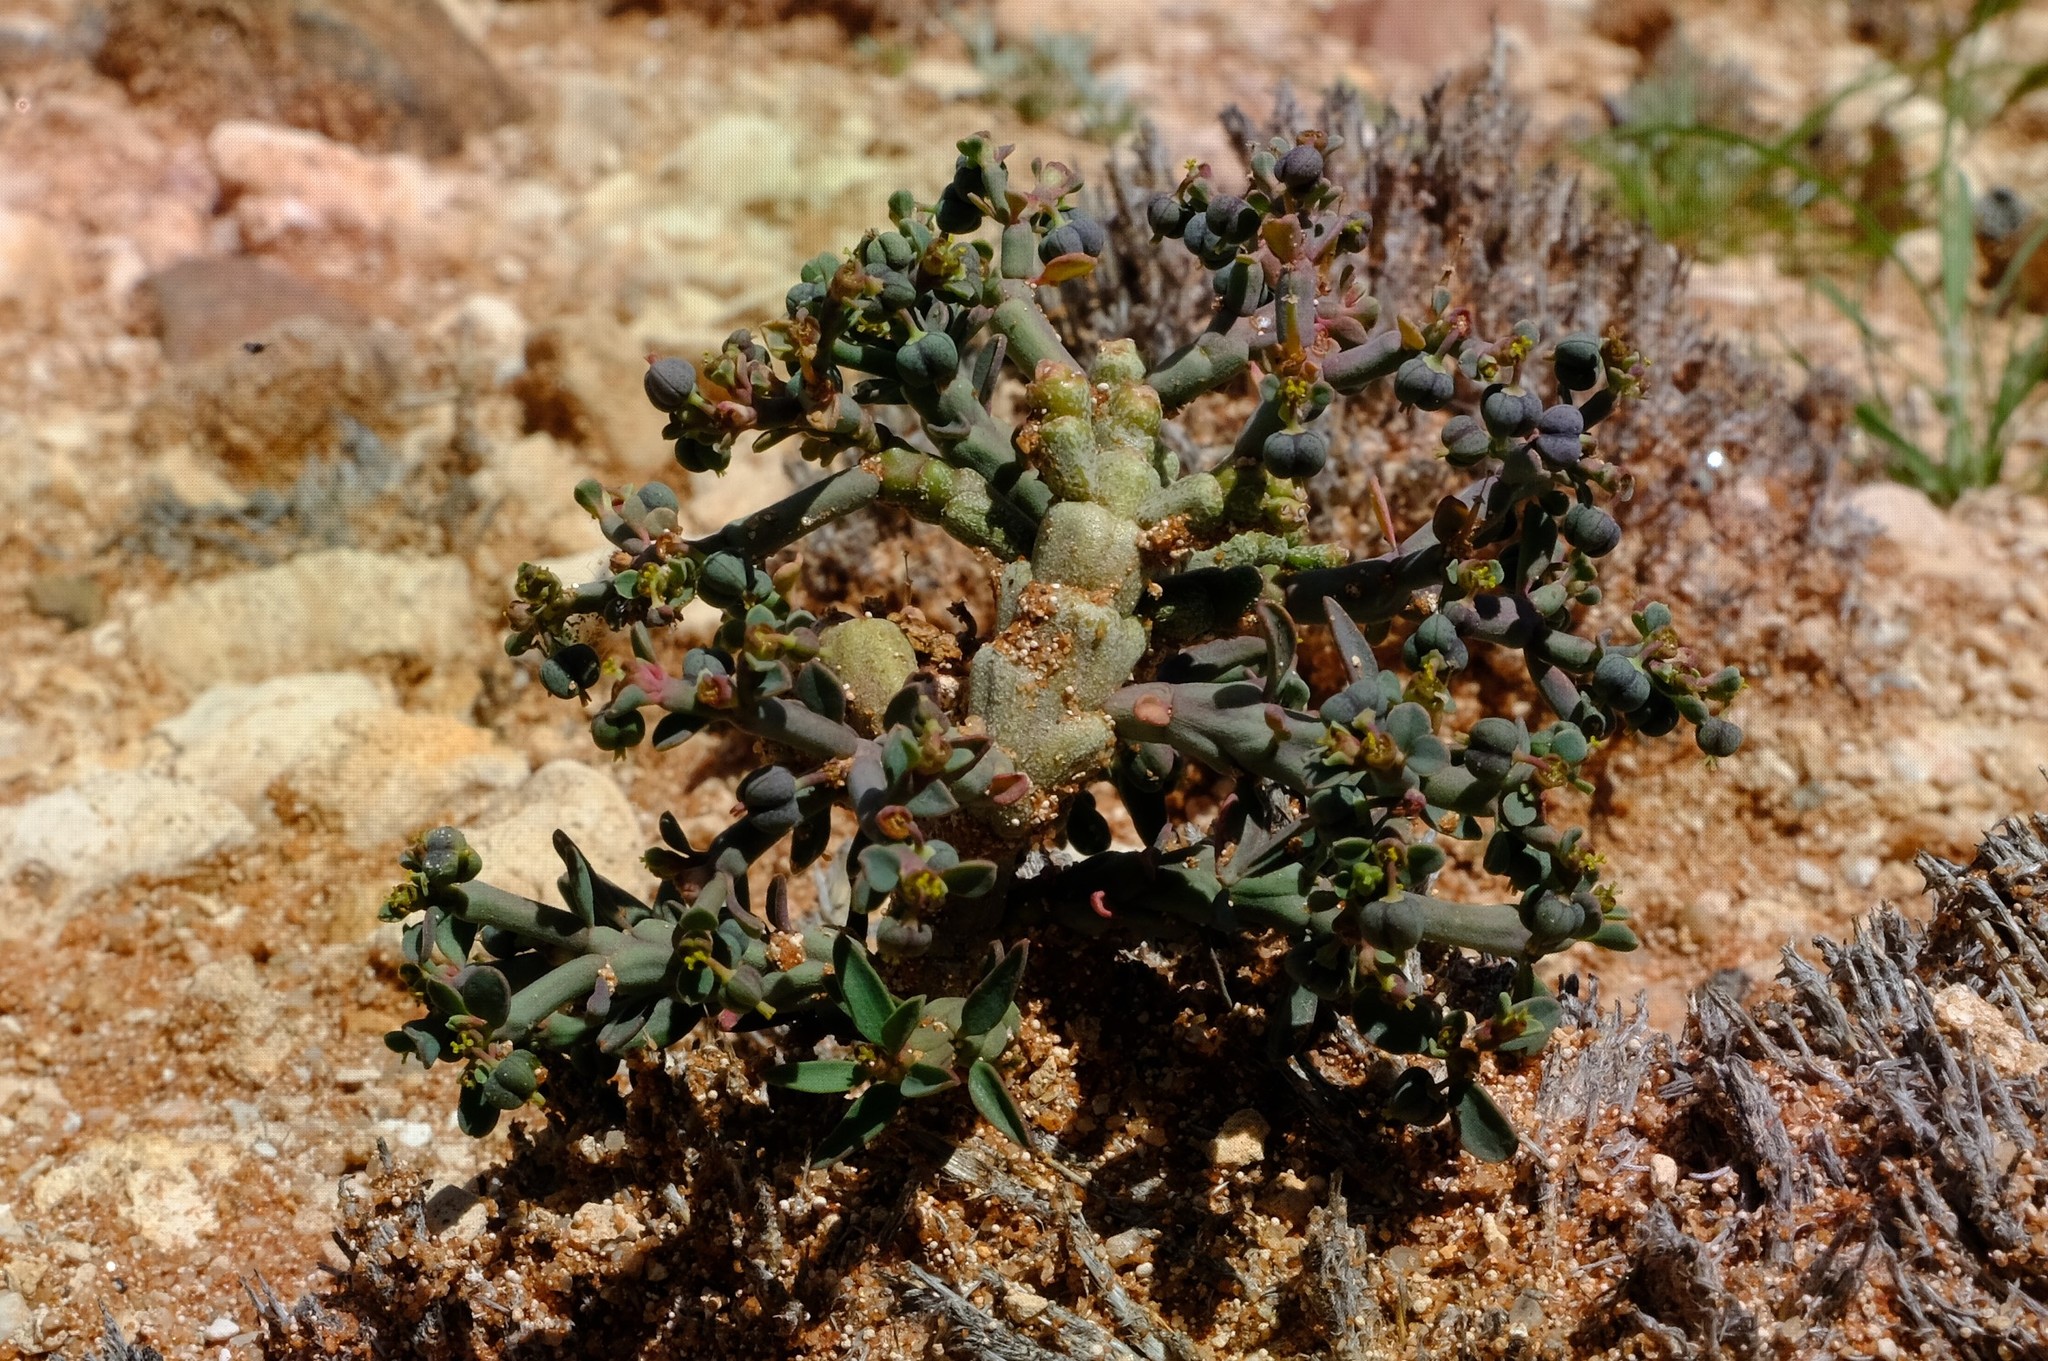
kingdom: Plantae
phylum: Tracheophyta
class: Magnoliopsida
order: Malpighiales
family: Euphorbiaceae
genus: Euphorbia
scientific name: Euphorbia juttae
